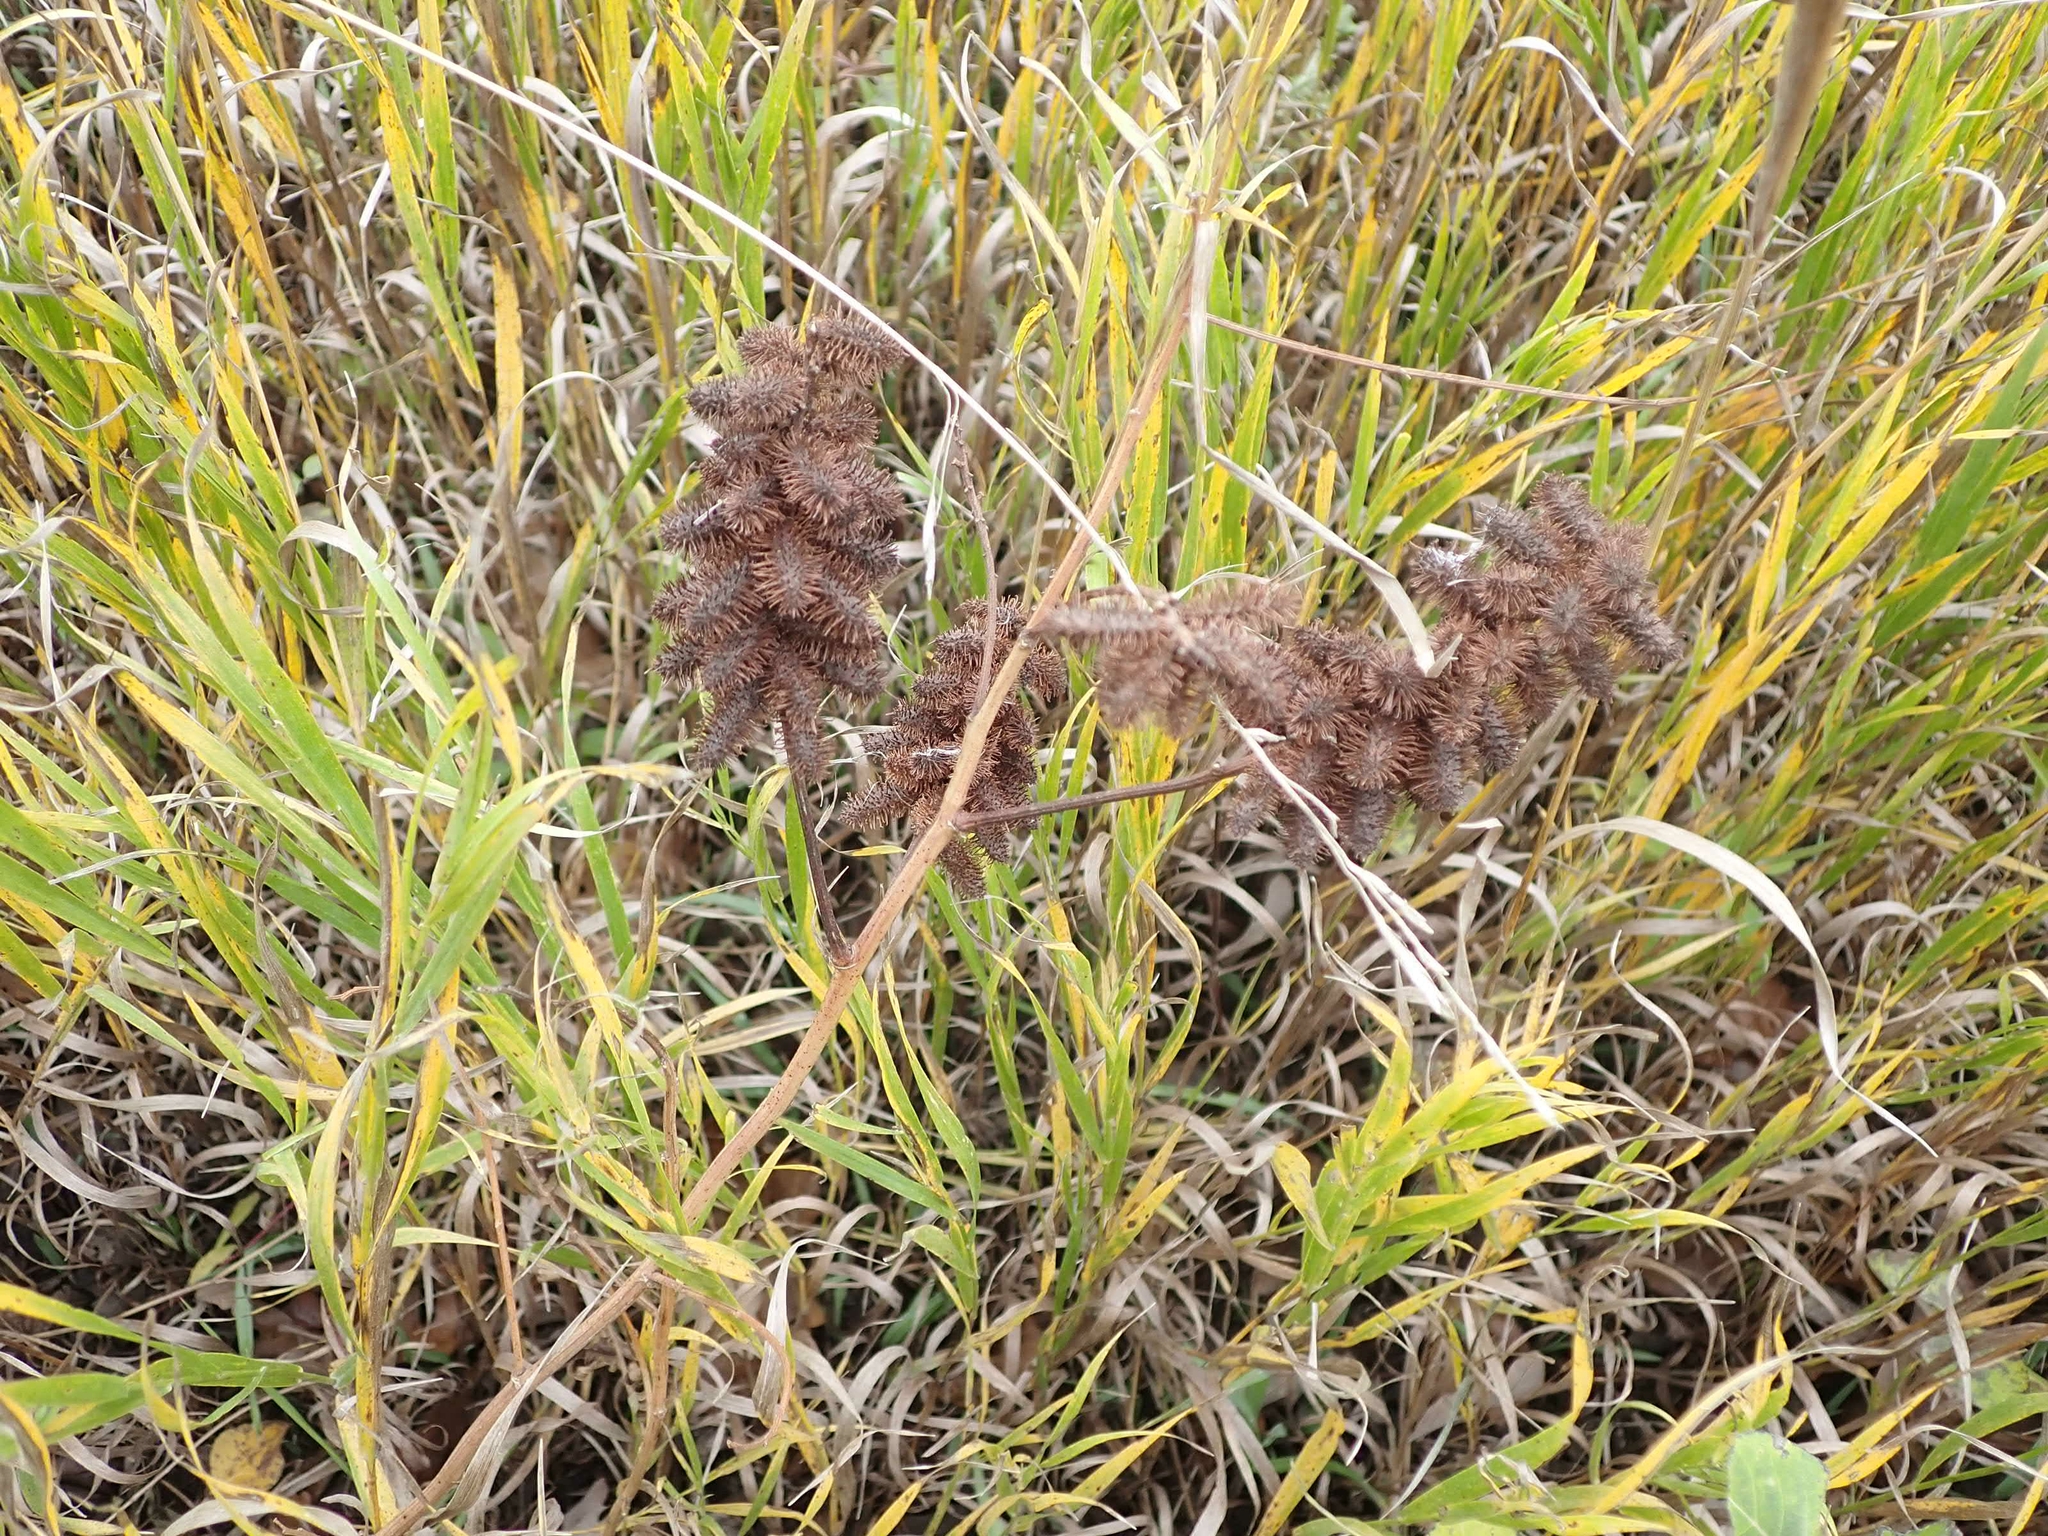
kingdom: Plantae
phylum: Tracheophyta
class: Magnoliopsida
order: Fabales
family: Fabaceae
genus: Glycyrrhiza
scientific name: Glycyrrhiza lepidota
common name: American liquorice
